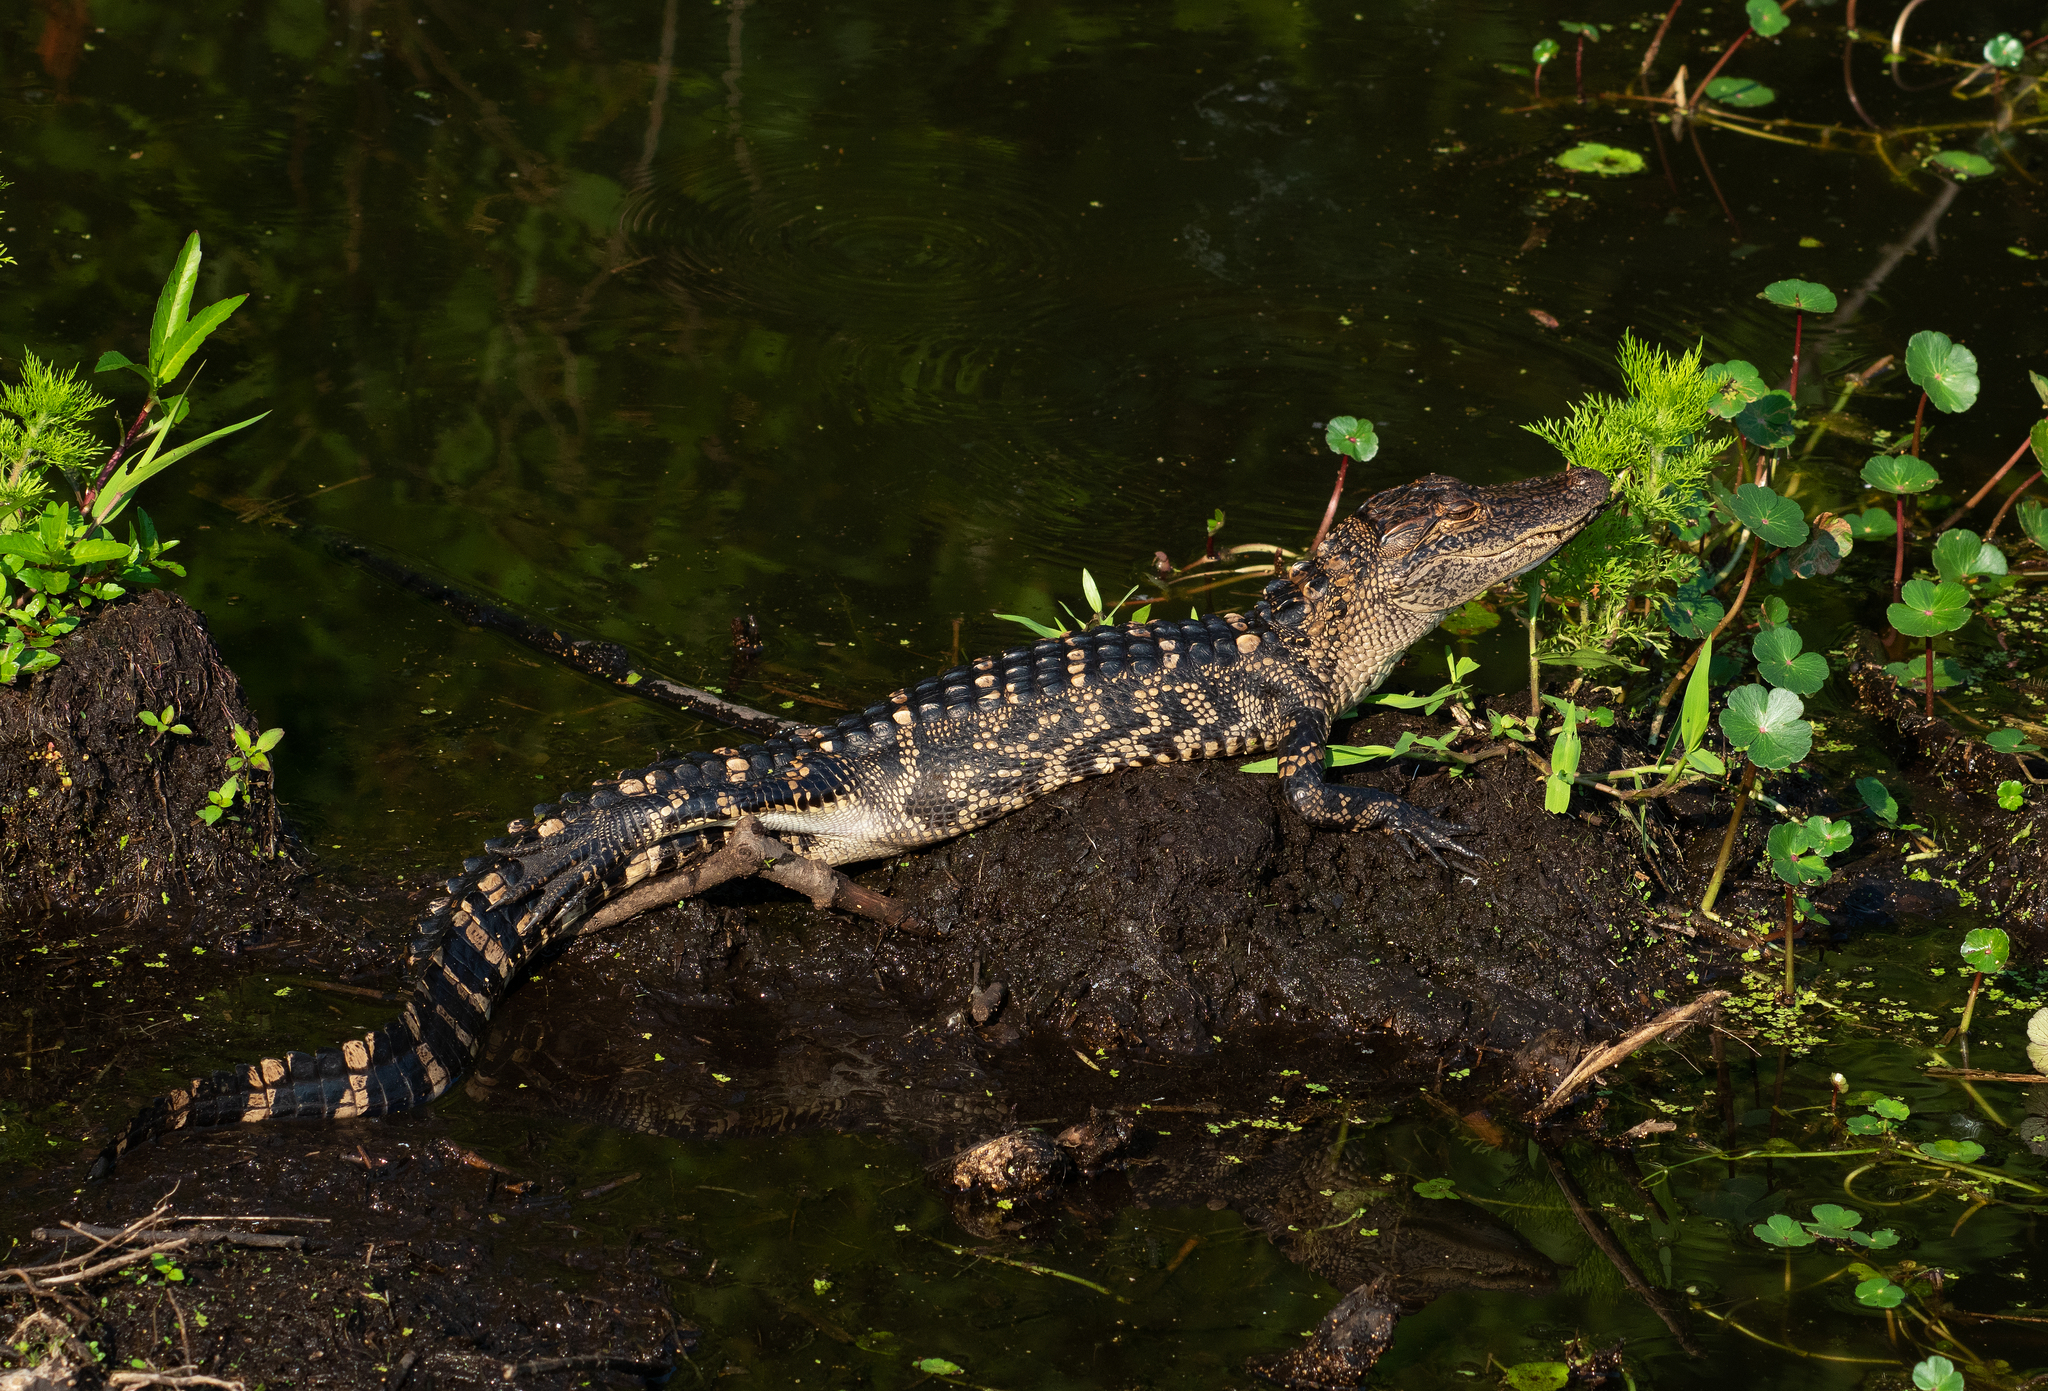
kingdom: Animalia
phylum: Chordata
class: Crocodylia
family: Alligatoridae
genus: Alligator
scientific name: Alligator mississippiensis
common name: American alligator
